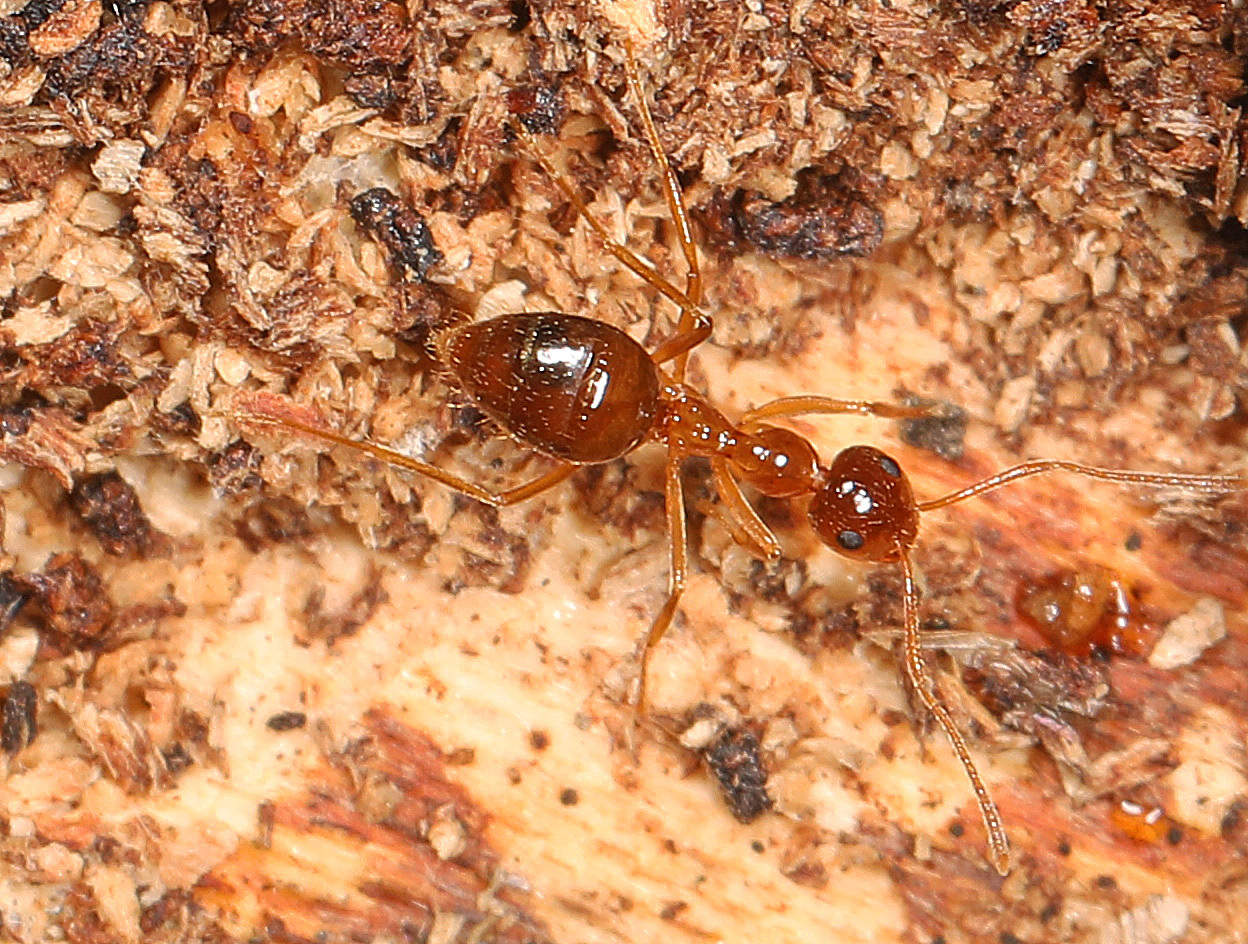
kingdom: Animalia
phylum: Arthropoda
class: Insecta
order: Hymenoptera
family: Formicidae
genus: Prenolepis
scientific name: Prenolepis imparis
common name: Small honey ant
